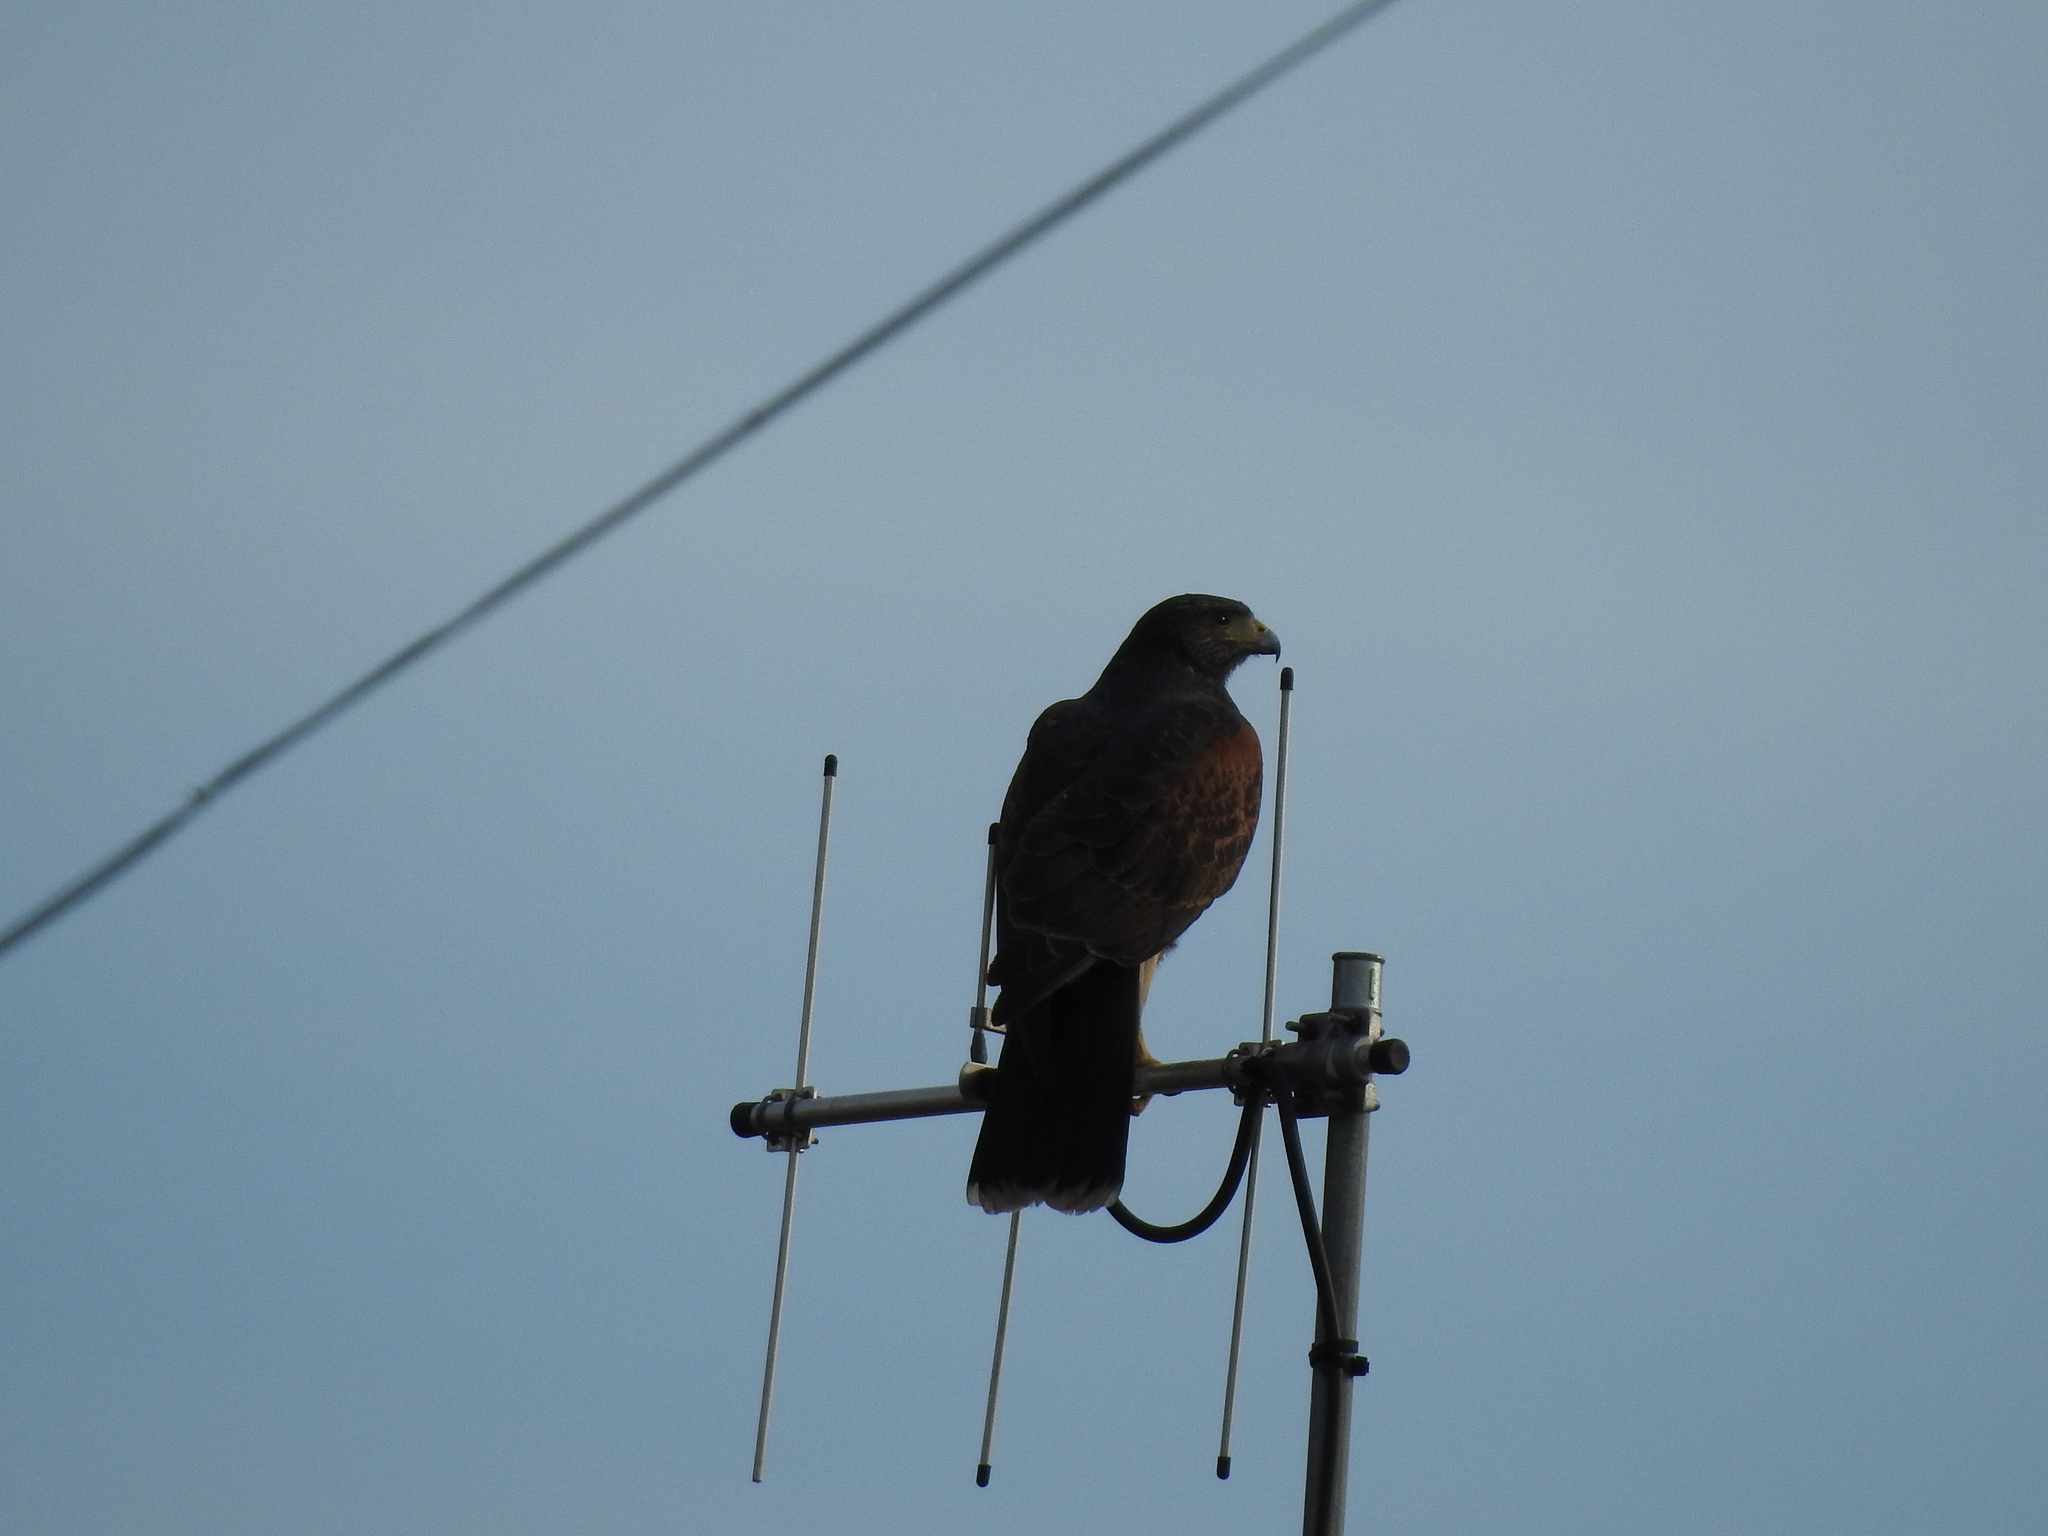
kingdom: Animalia
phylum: Chordata
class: Aves
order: Accipitriformes
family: Accipitridae
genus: Parabuteo
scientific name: Parabuteo unicinctus
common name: Harris's hawk
